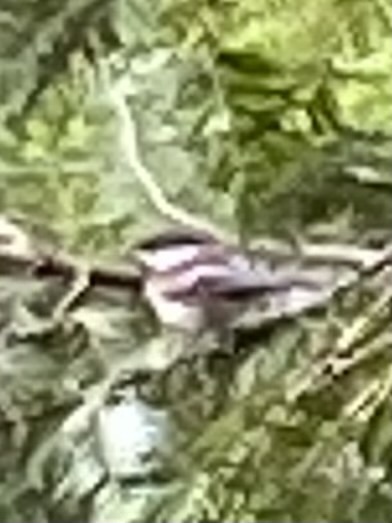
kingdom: Animalia
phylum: Chordata
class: Aves
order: Passeriformes
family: Paridae
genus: Poecile
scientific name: Poecile rufescens
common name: Chestnut-backed chickadee
